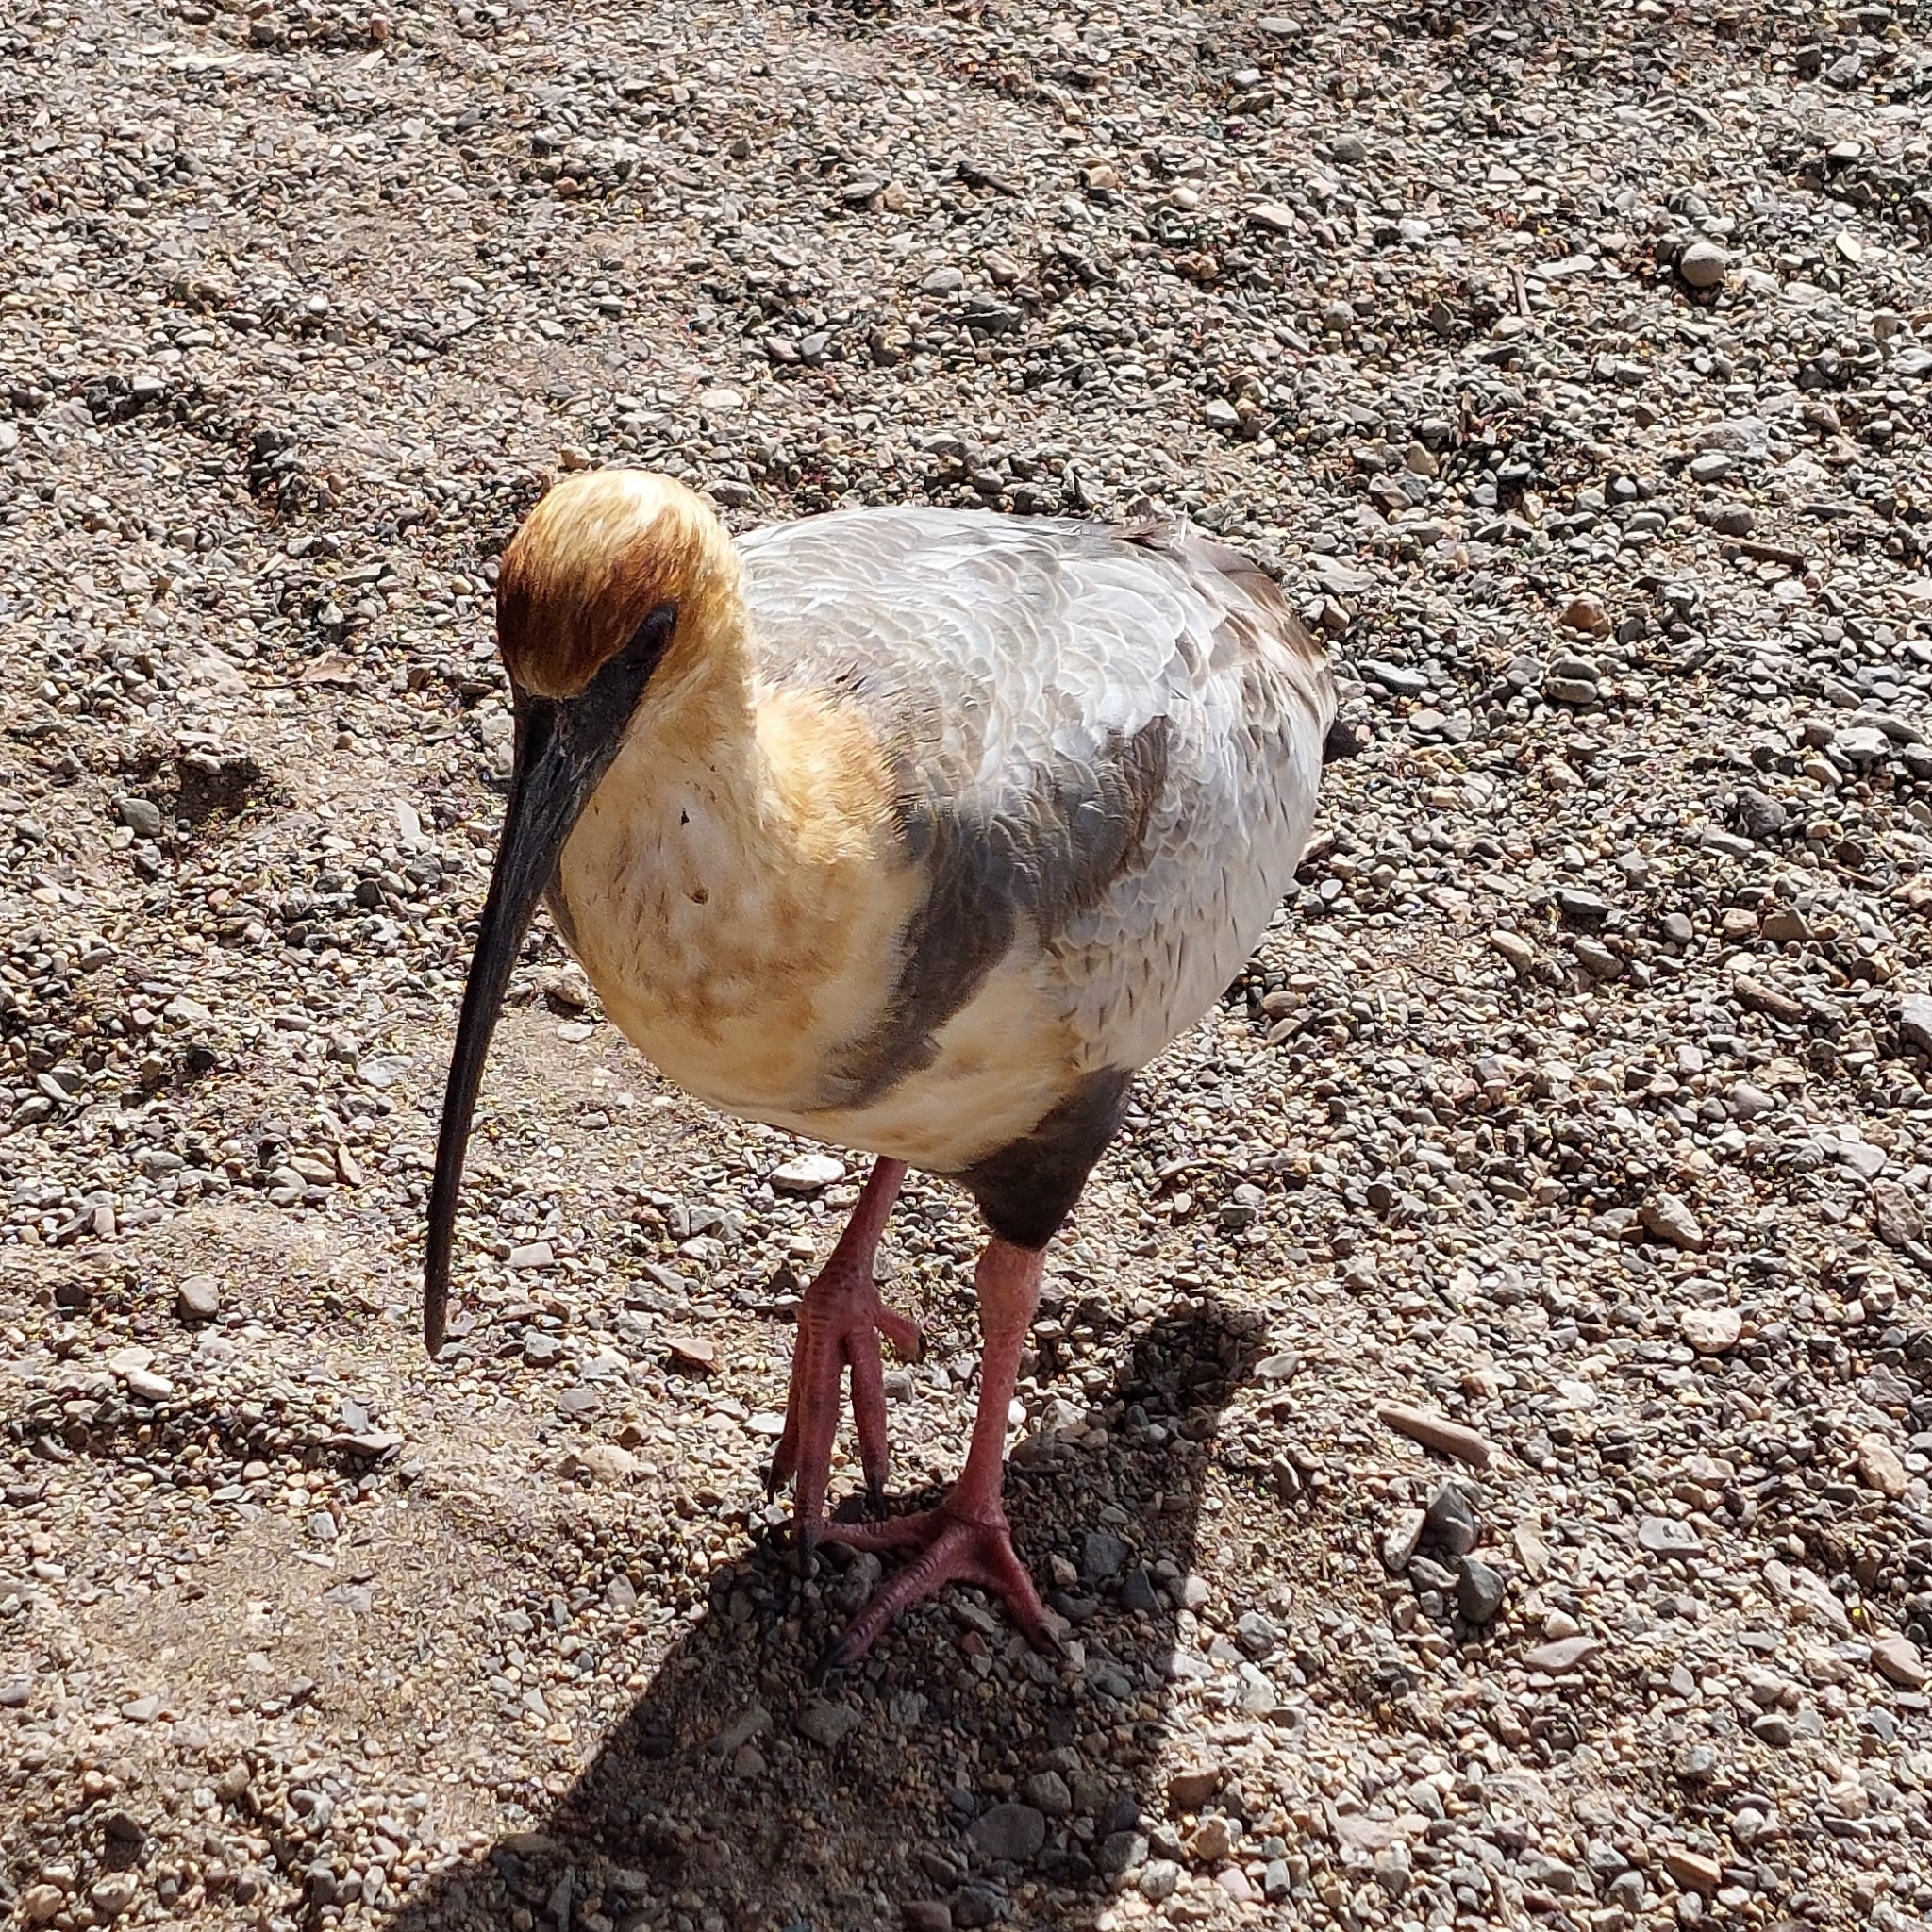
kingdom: Animalia
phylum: Chordata
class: Aves
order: Pelecaniformes
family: Threskiornithidae
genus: Theristicus
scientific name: Theristicus melanopis
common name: Black-faced ibis
